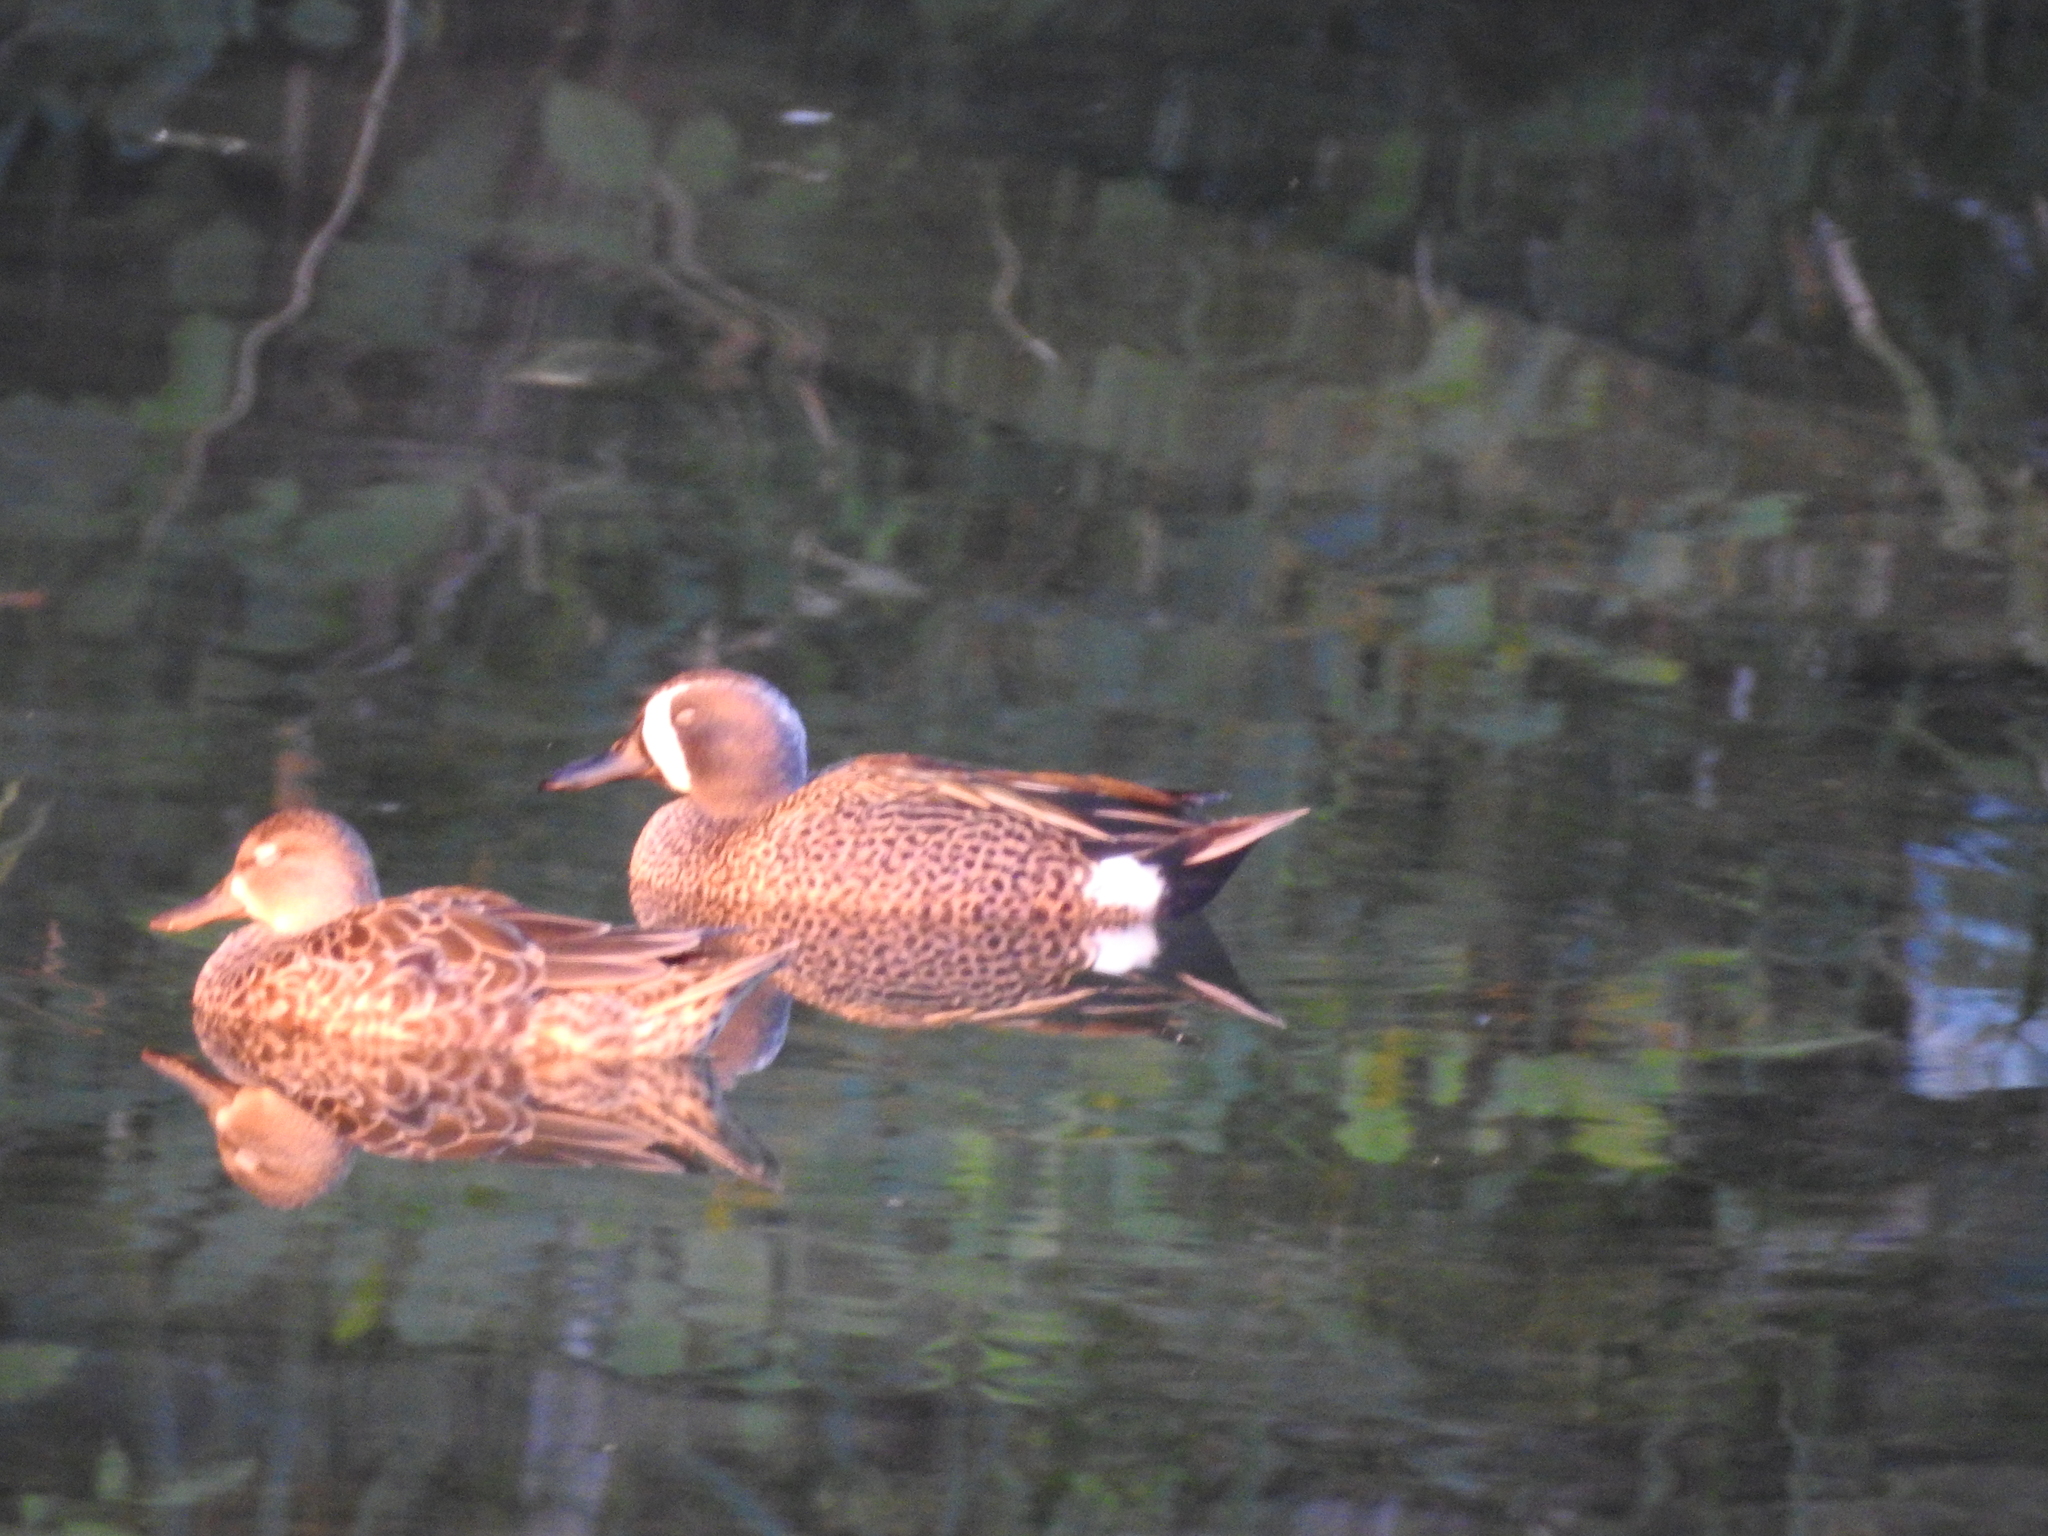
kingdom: Animalia
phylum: Chordata
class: Aves
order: Anseriformes
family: Anatidae
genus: Spatula
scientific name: Spatula discors
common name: Blue-winged teal
